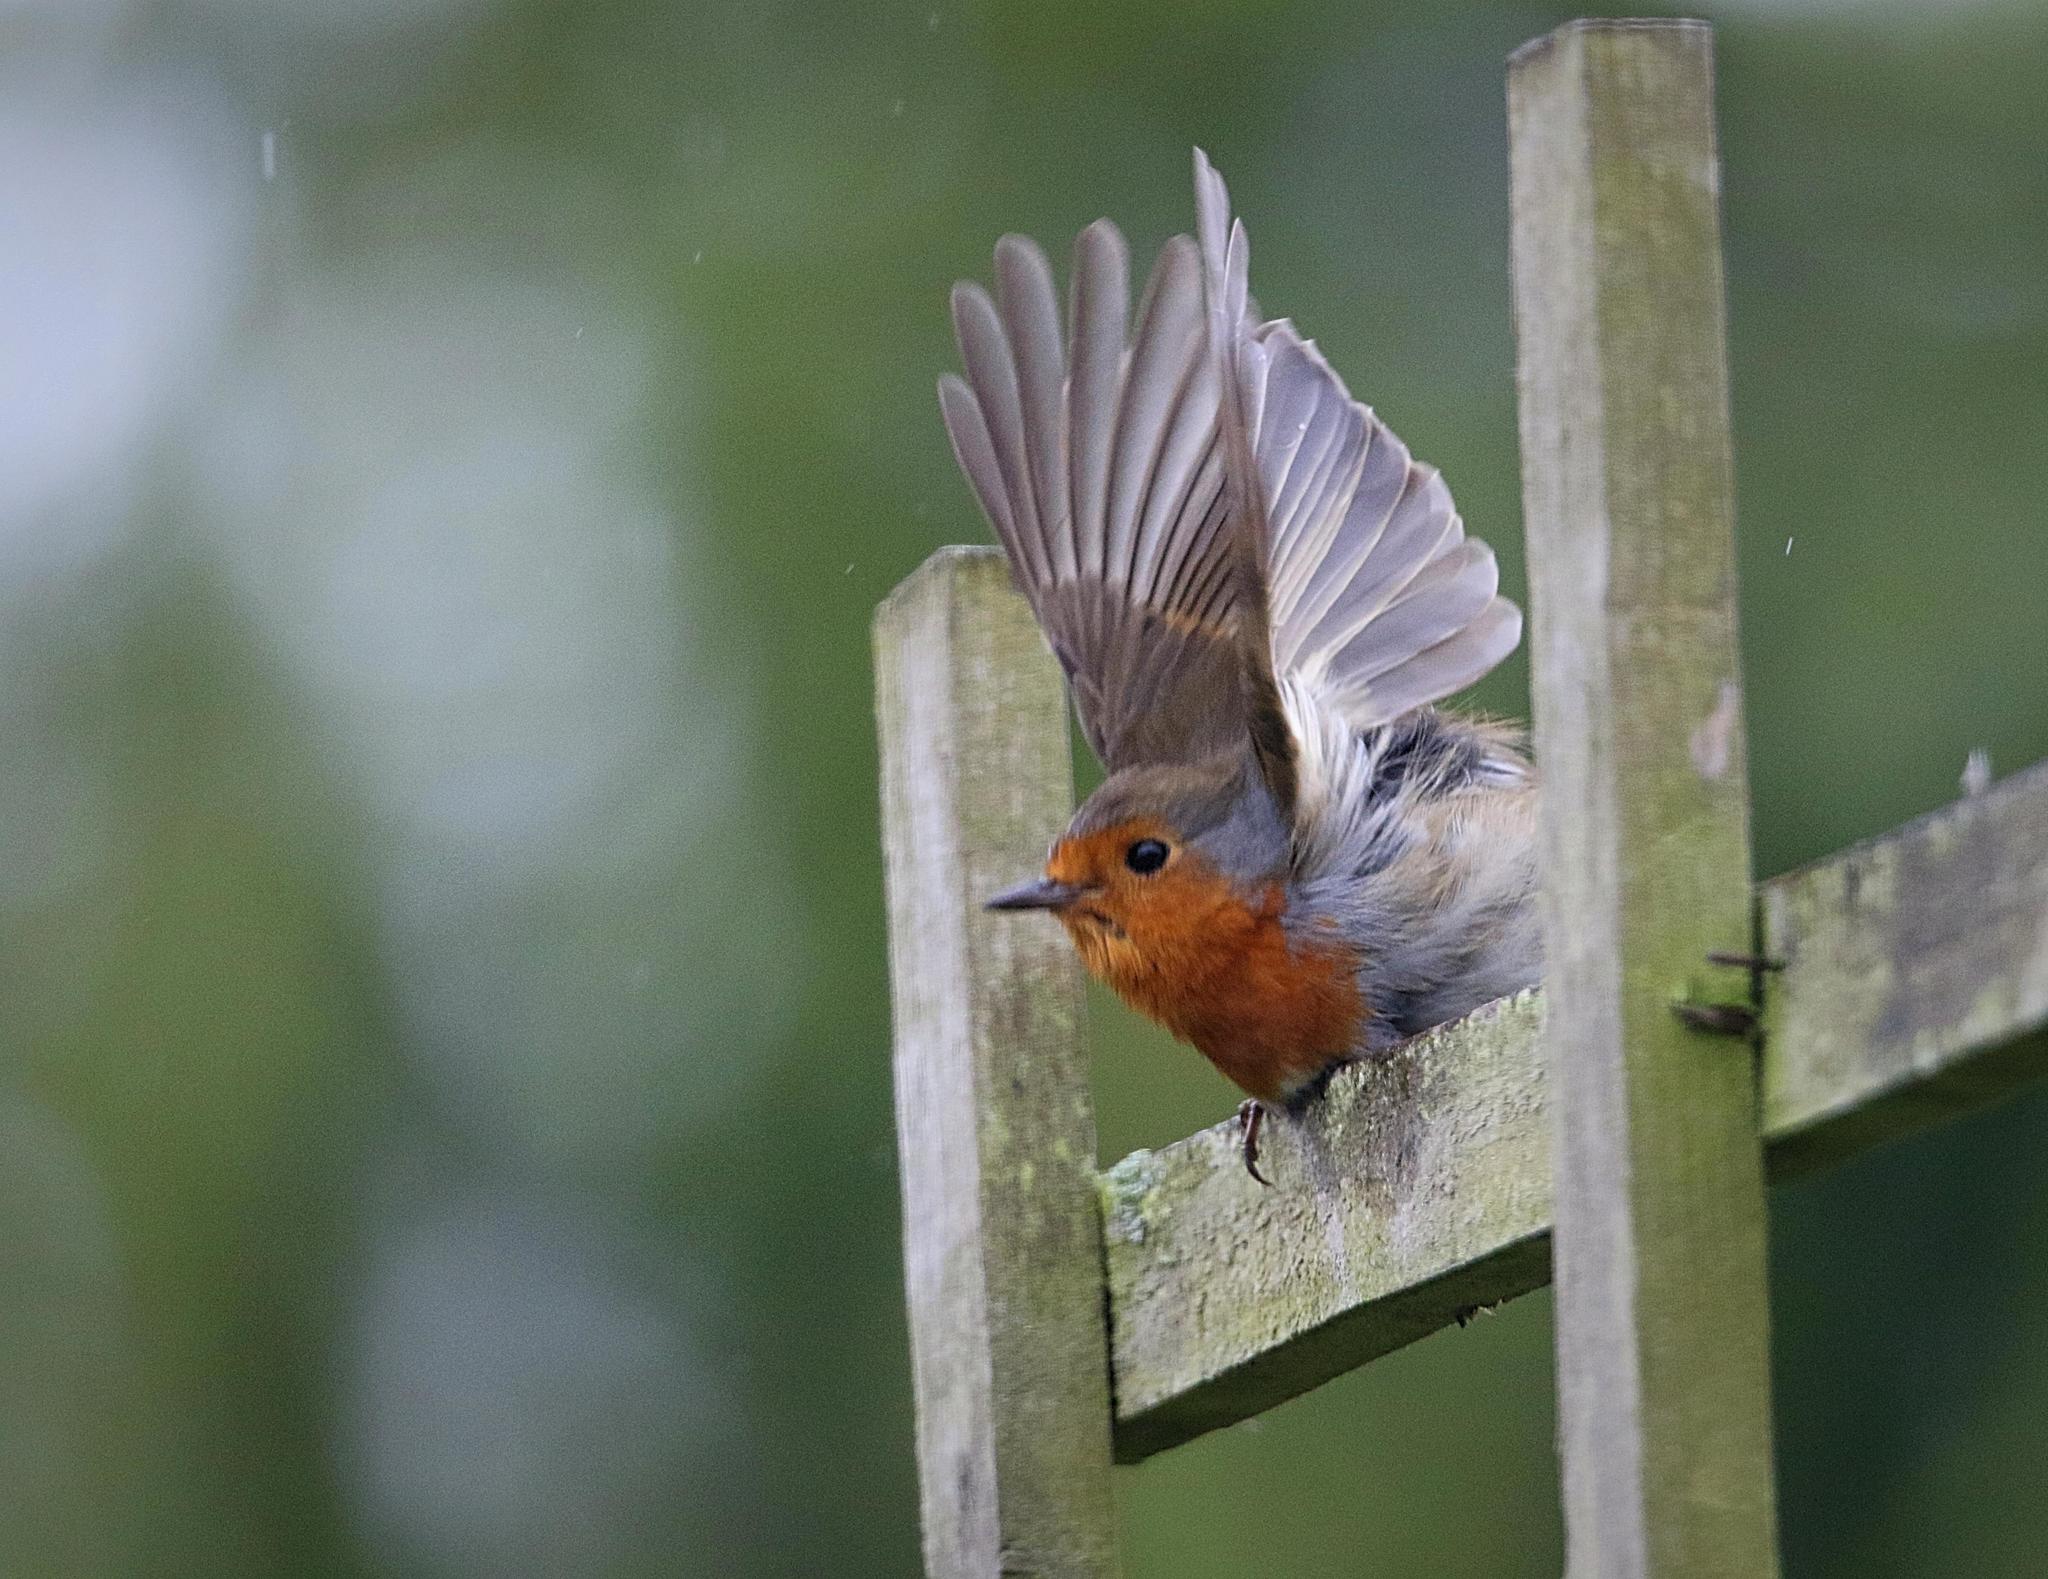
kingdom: Animalia
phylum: Chordata
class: Aves
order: Passeriformes
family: Muscicapidae
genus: Erithacus
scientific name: Erithacus rubecula
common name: European robin
